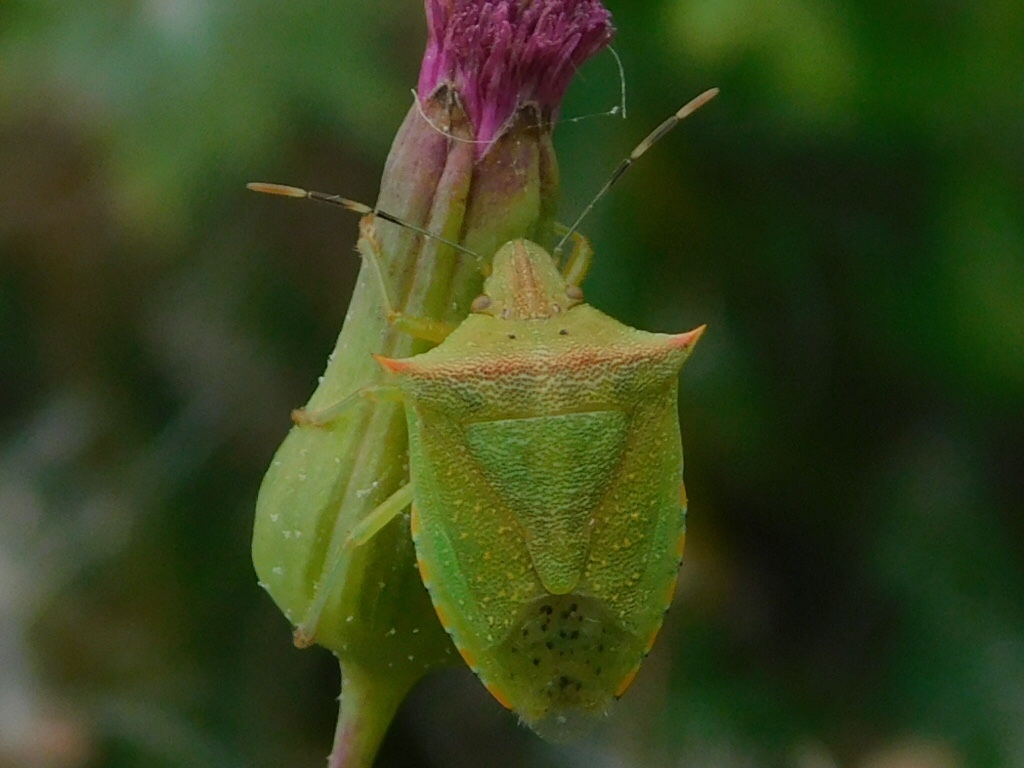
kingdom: Animalia
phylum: Arthropoda
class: Insecta
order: Hemiptera
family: Pentatomidae
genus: Thyanta
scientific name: Thyanta perditor
